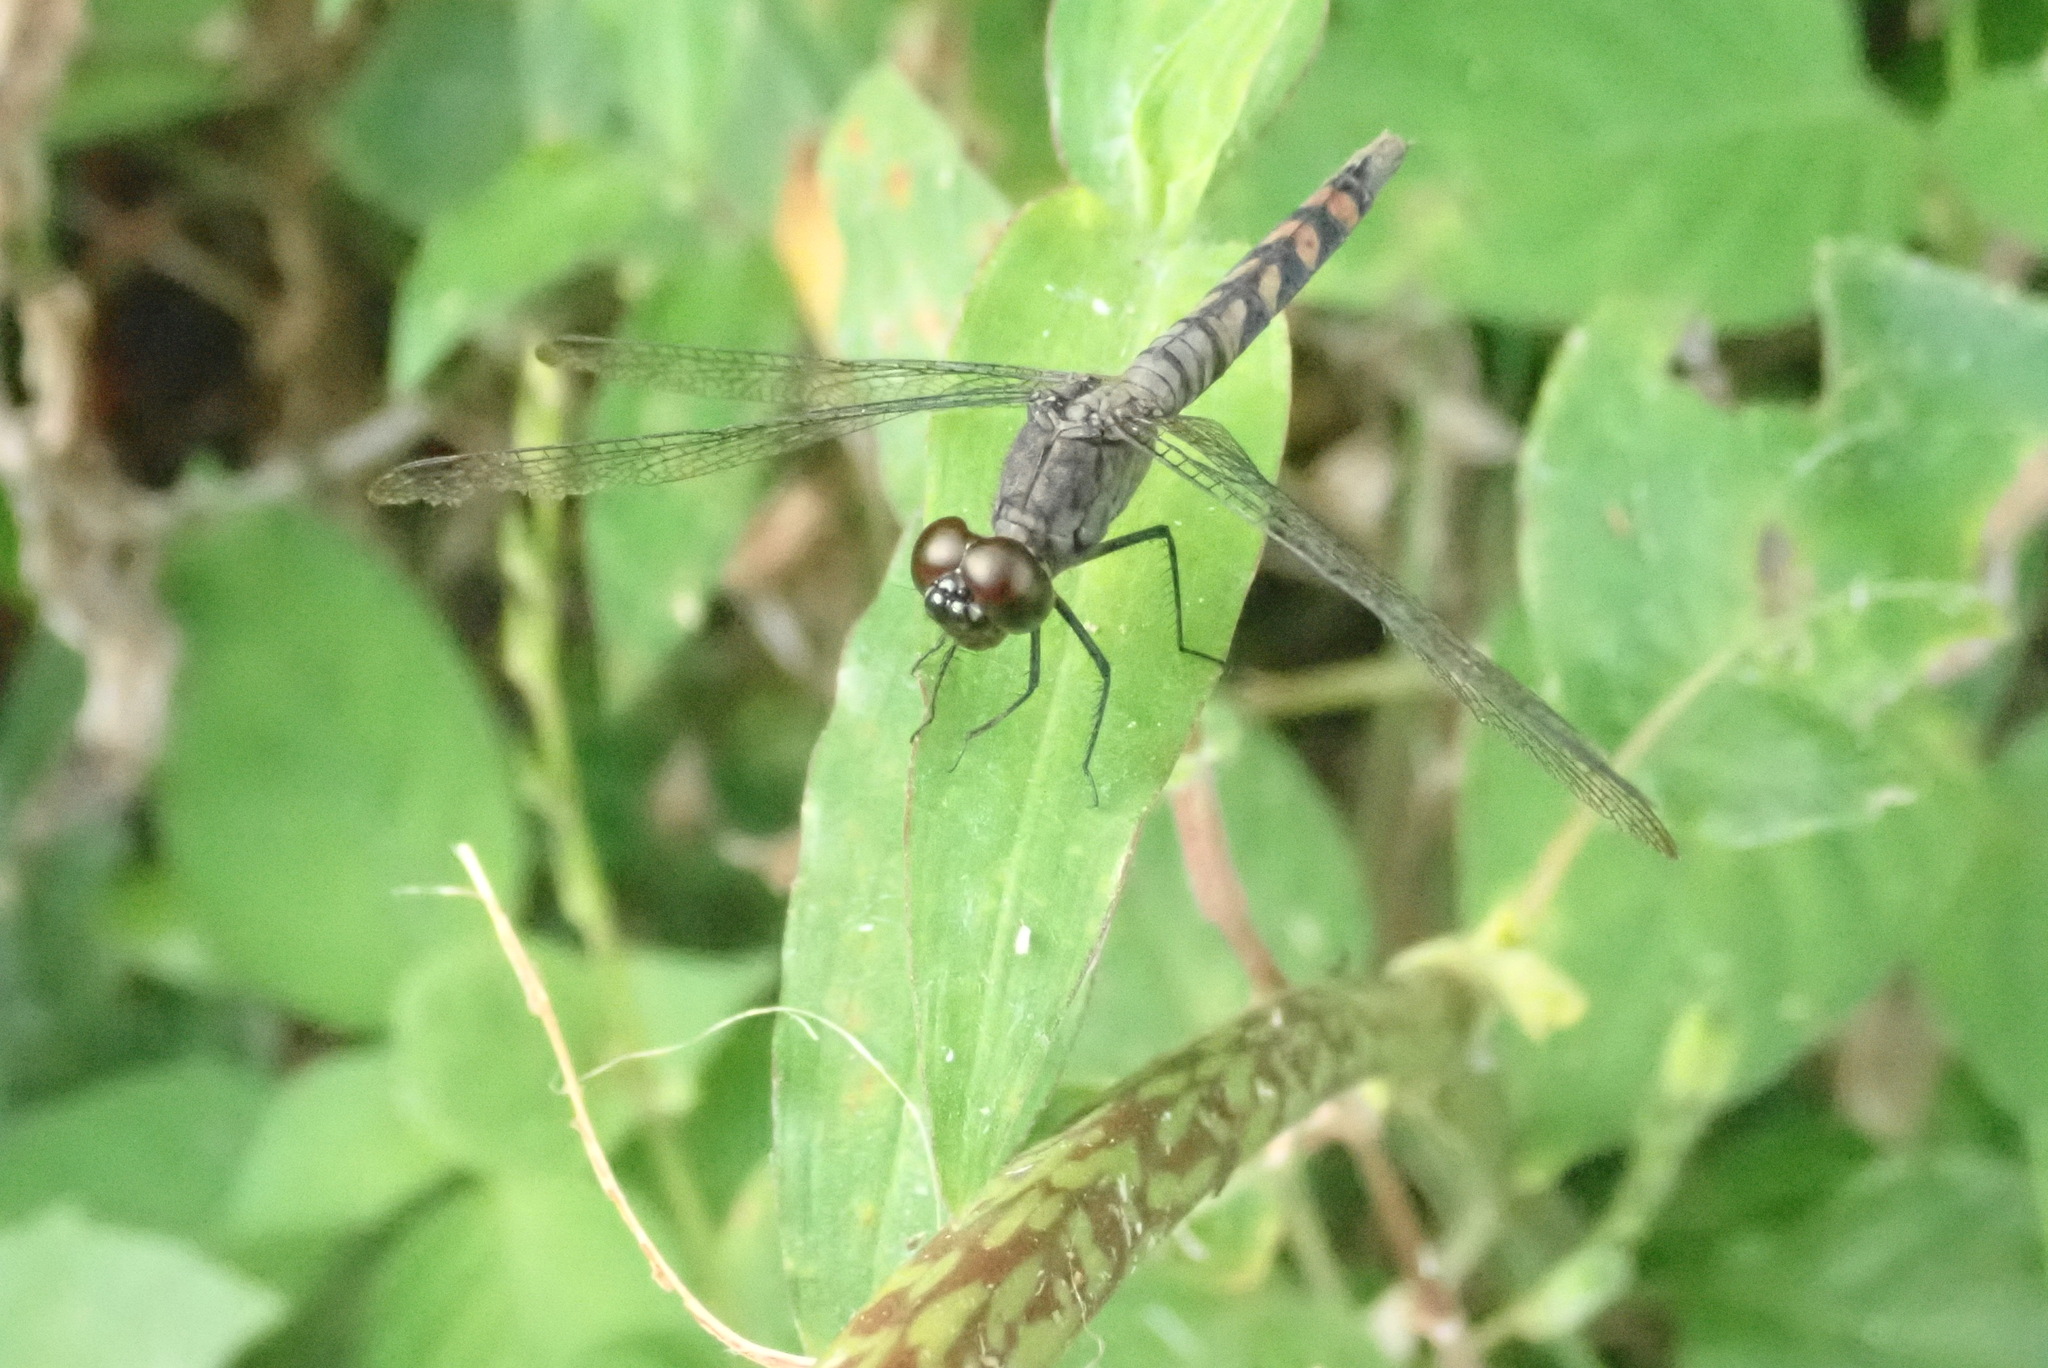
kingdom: Animalia
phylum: Arthropoda
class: Insecta
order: Odonata
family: Libellulidae
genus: Erythrodiplax
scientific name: Erythrodiplax unimaculata
